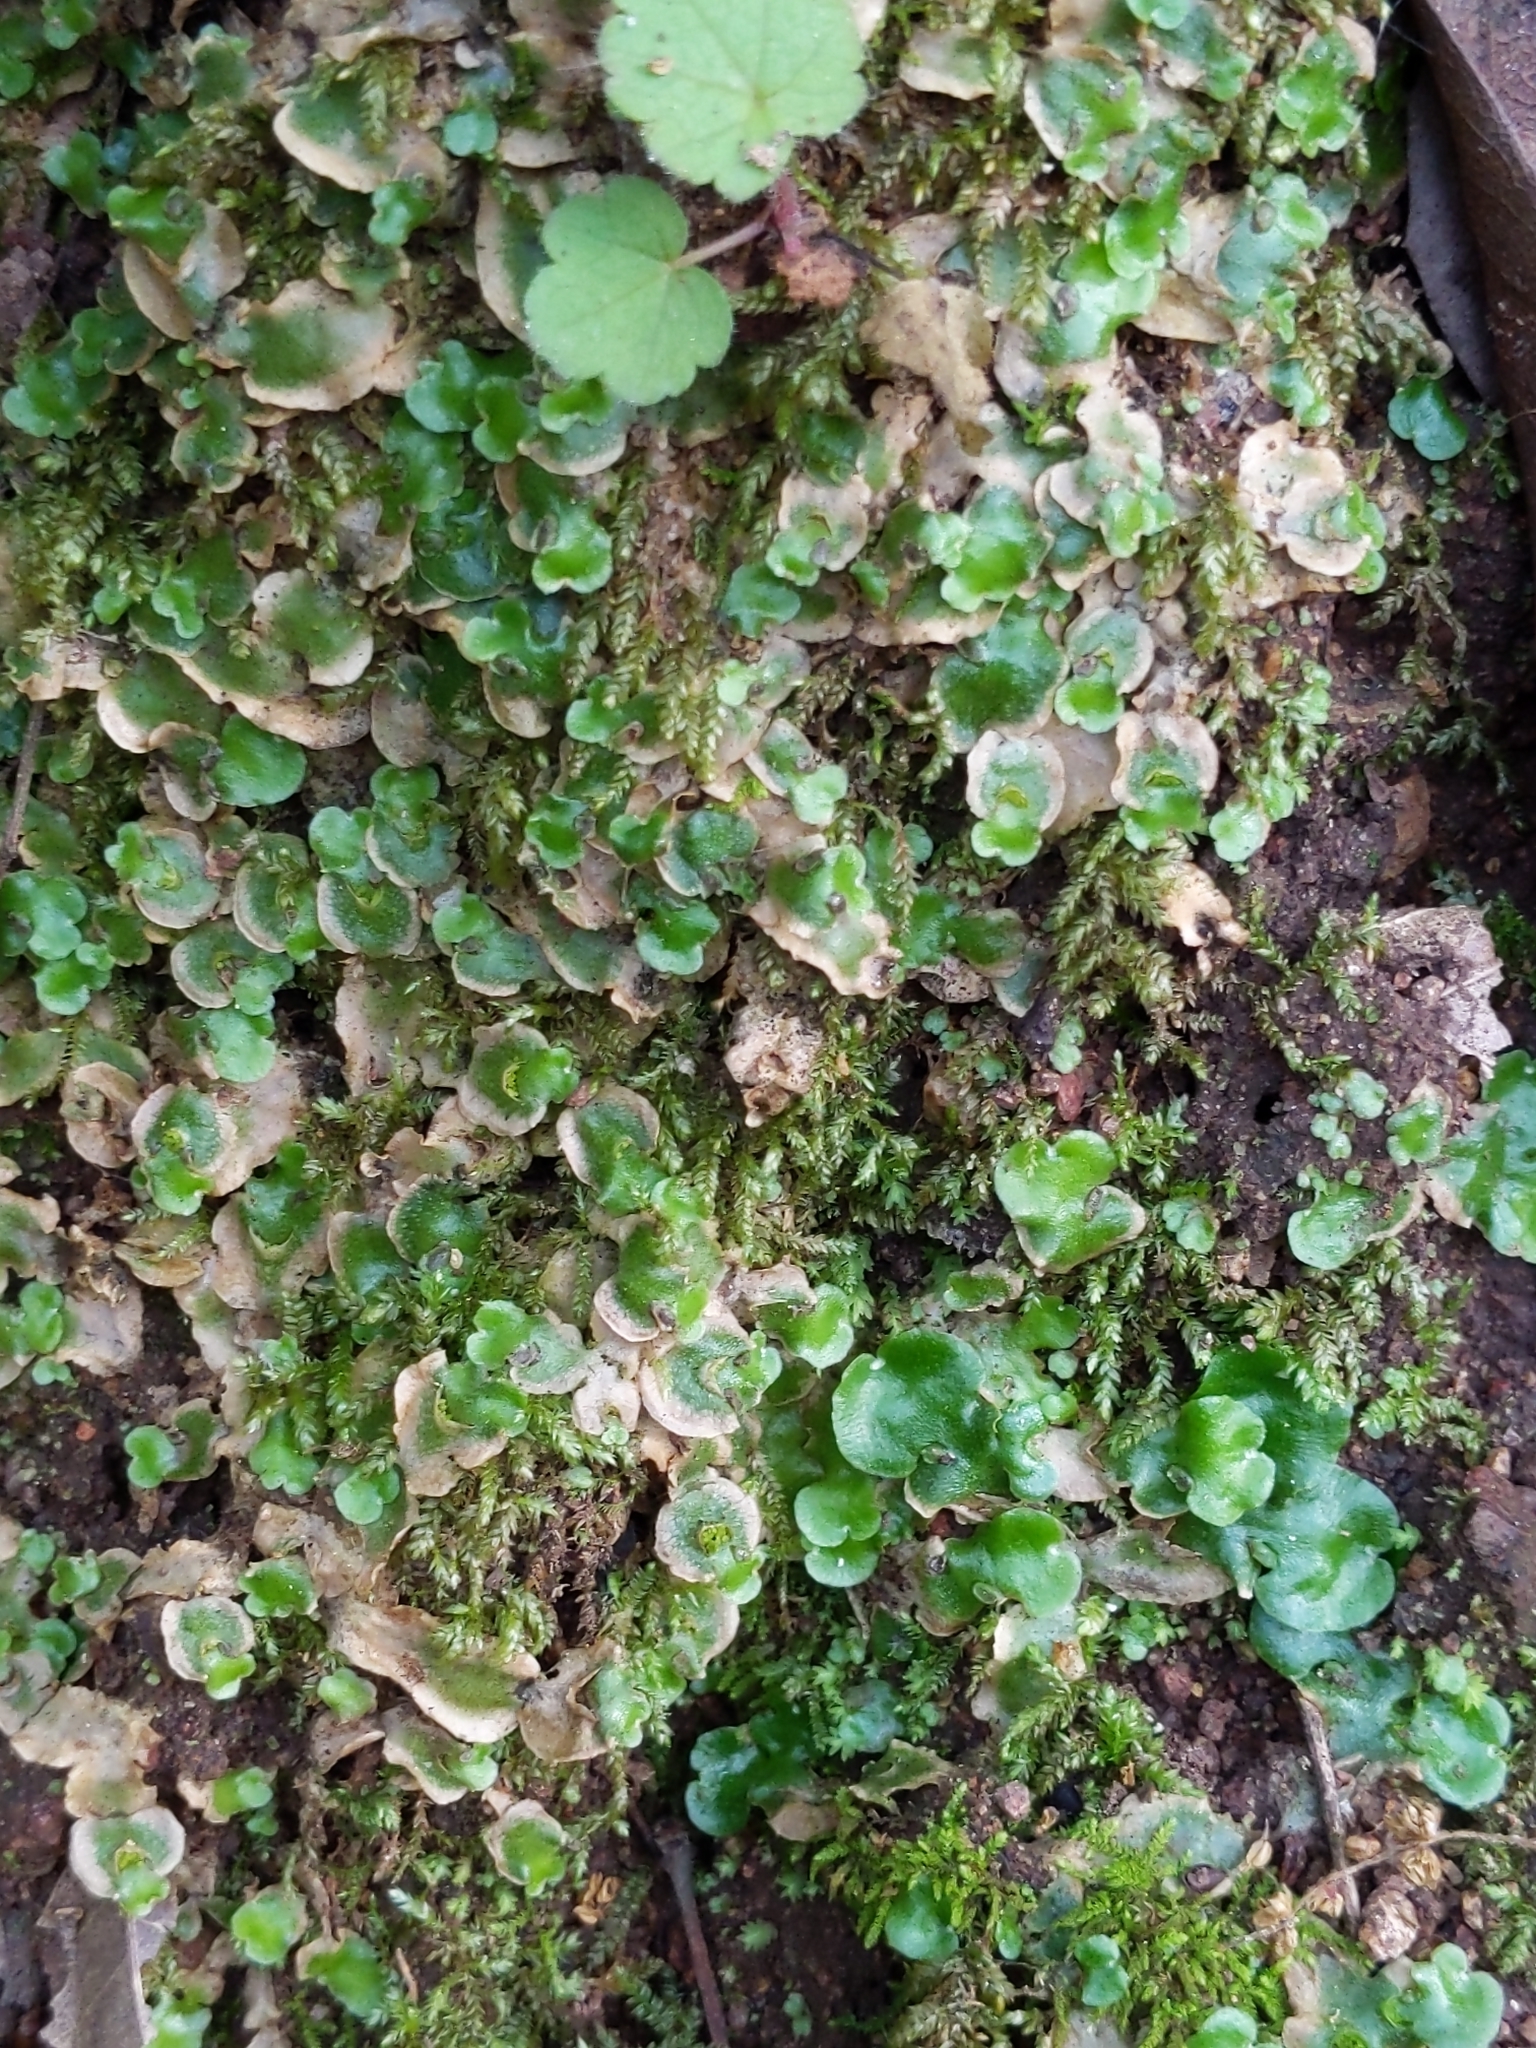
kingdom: Plantae
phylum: Marchantiophyta
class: Marchantiopsida
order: Lunulariales
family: Lunulariaceae
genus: Lunularia
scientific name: Lunularia cruciata
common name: Crescent-cup liverwort
